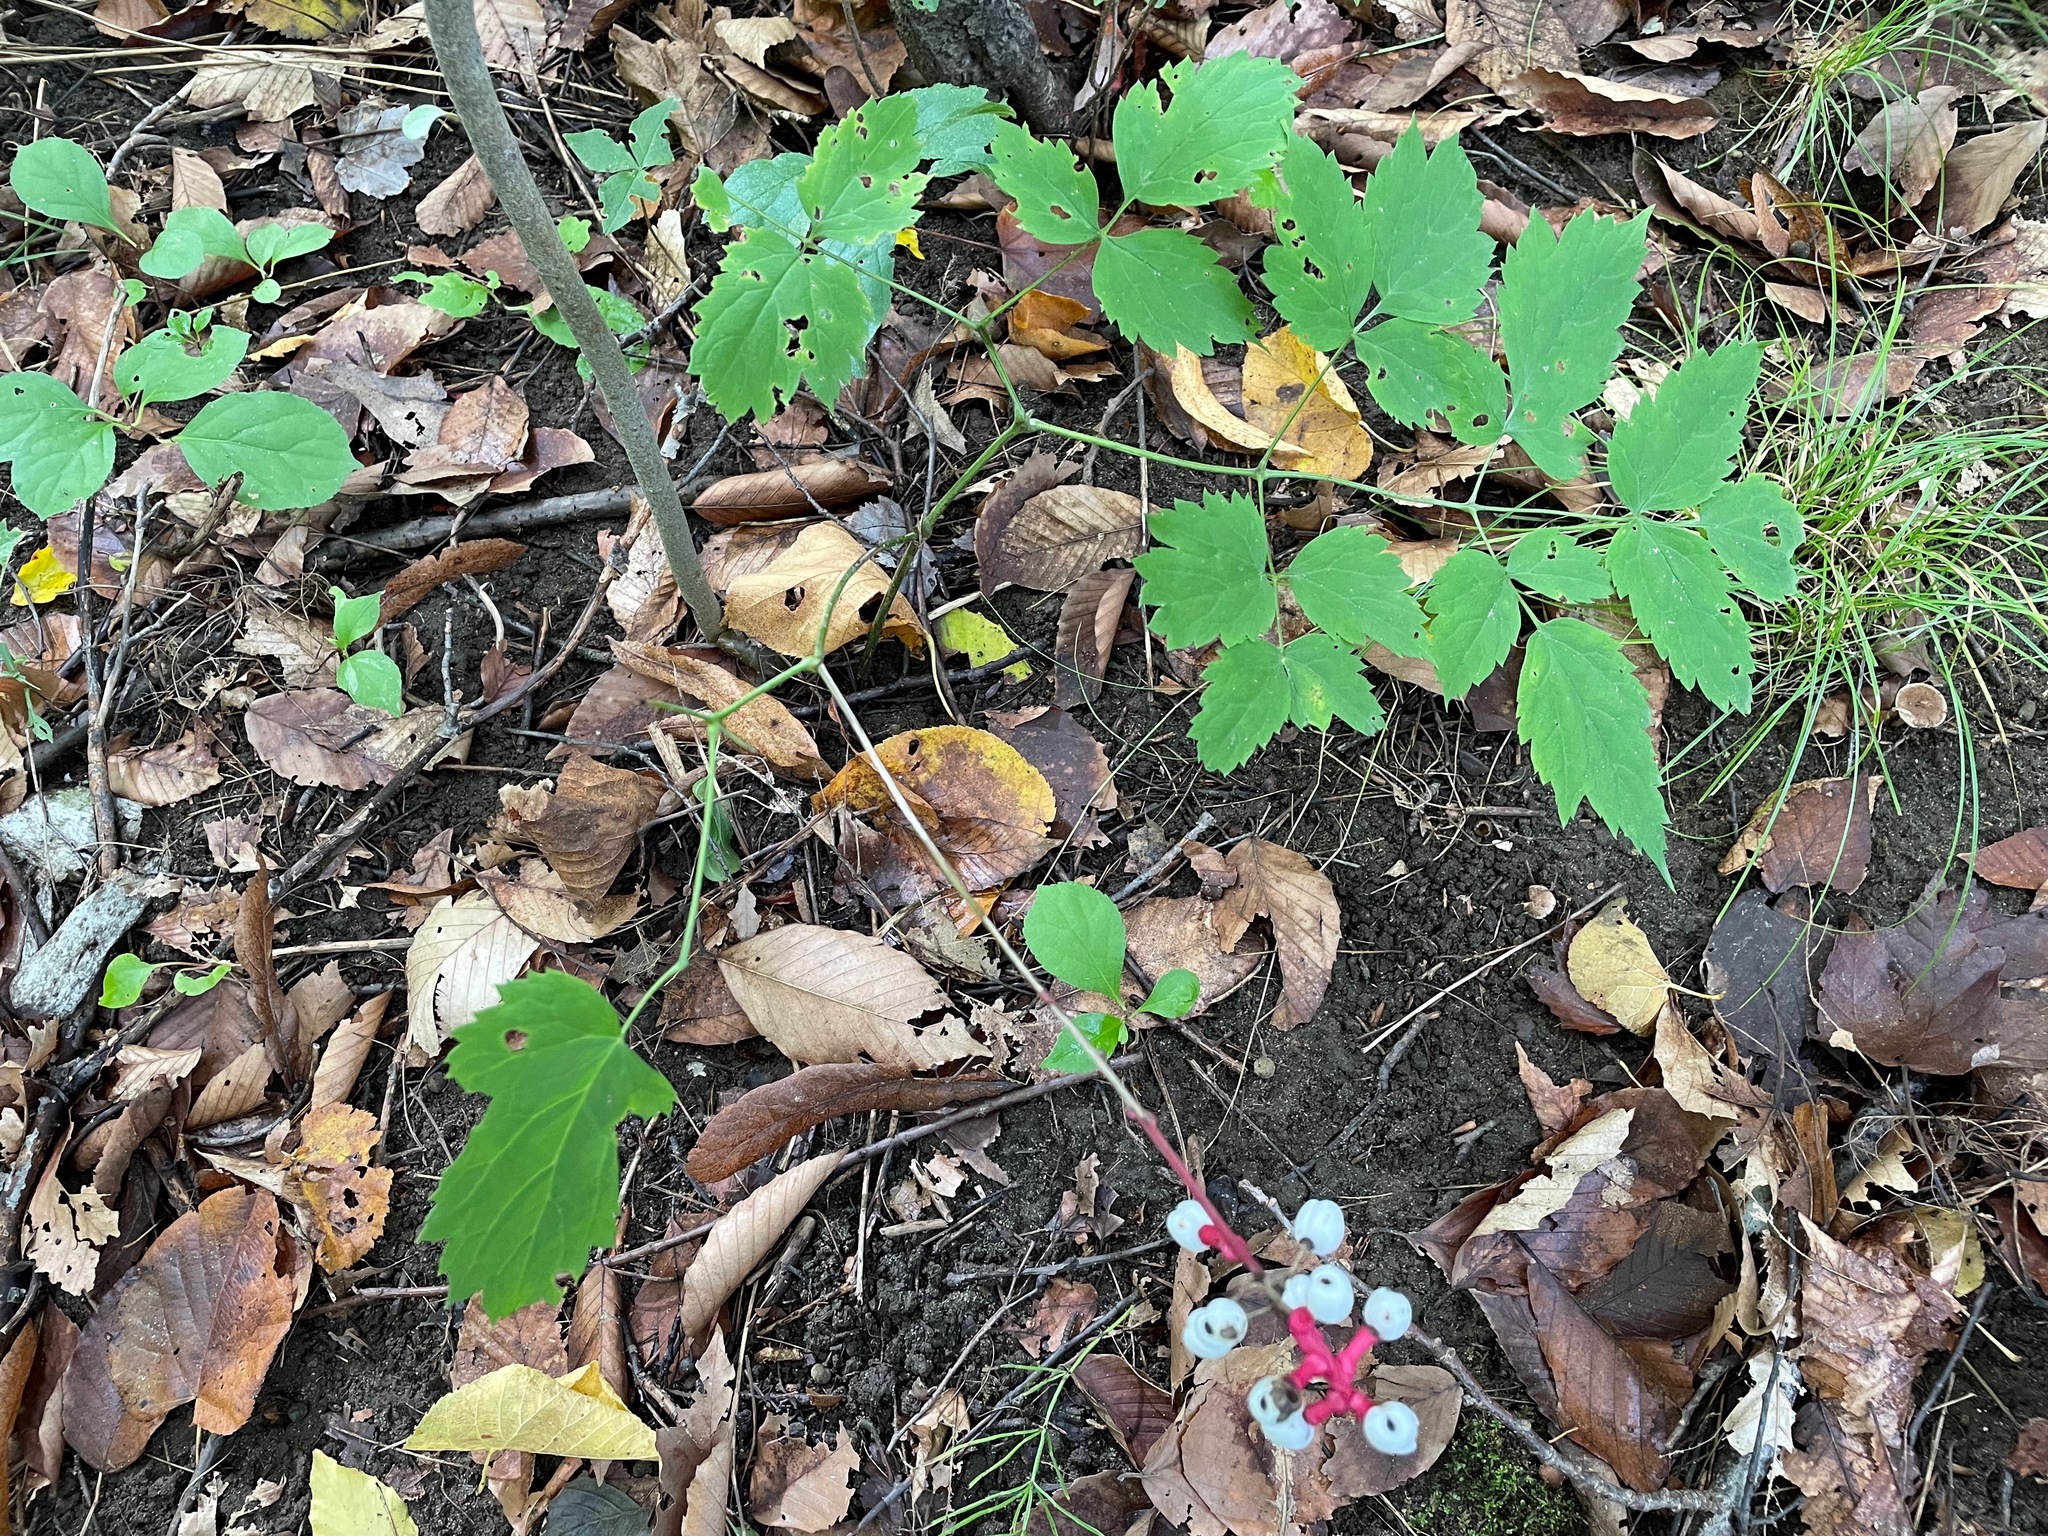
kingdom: Plantae
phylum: Tracheophyta
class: Magnoliopsida
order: Ranunculales
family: Ranunculaceae
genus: Actaea
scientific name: Actaea pachypoda
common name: Doll's-eyes
